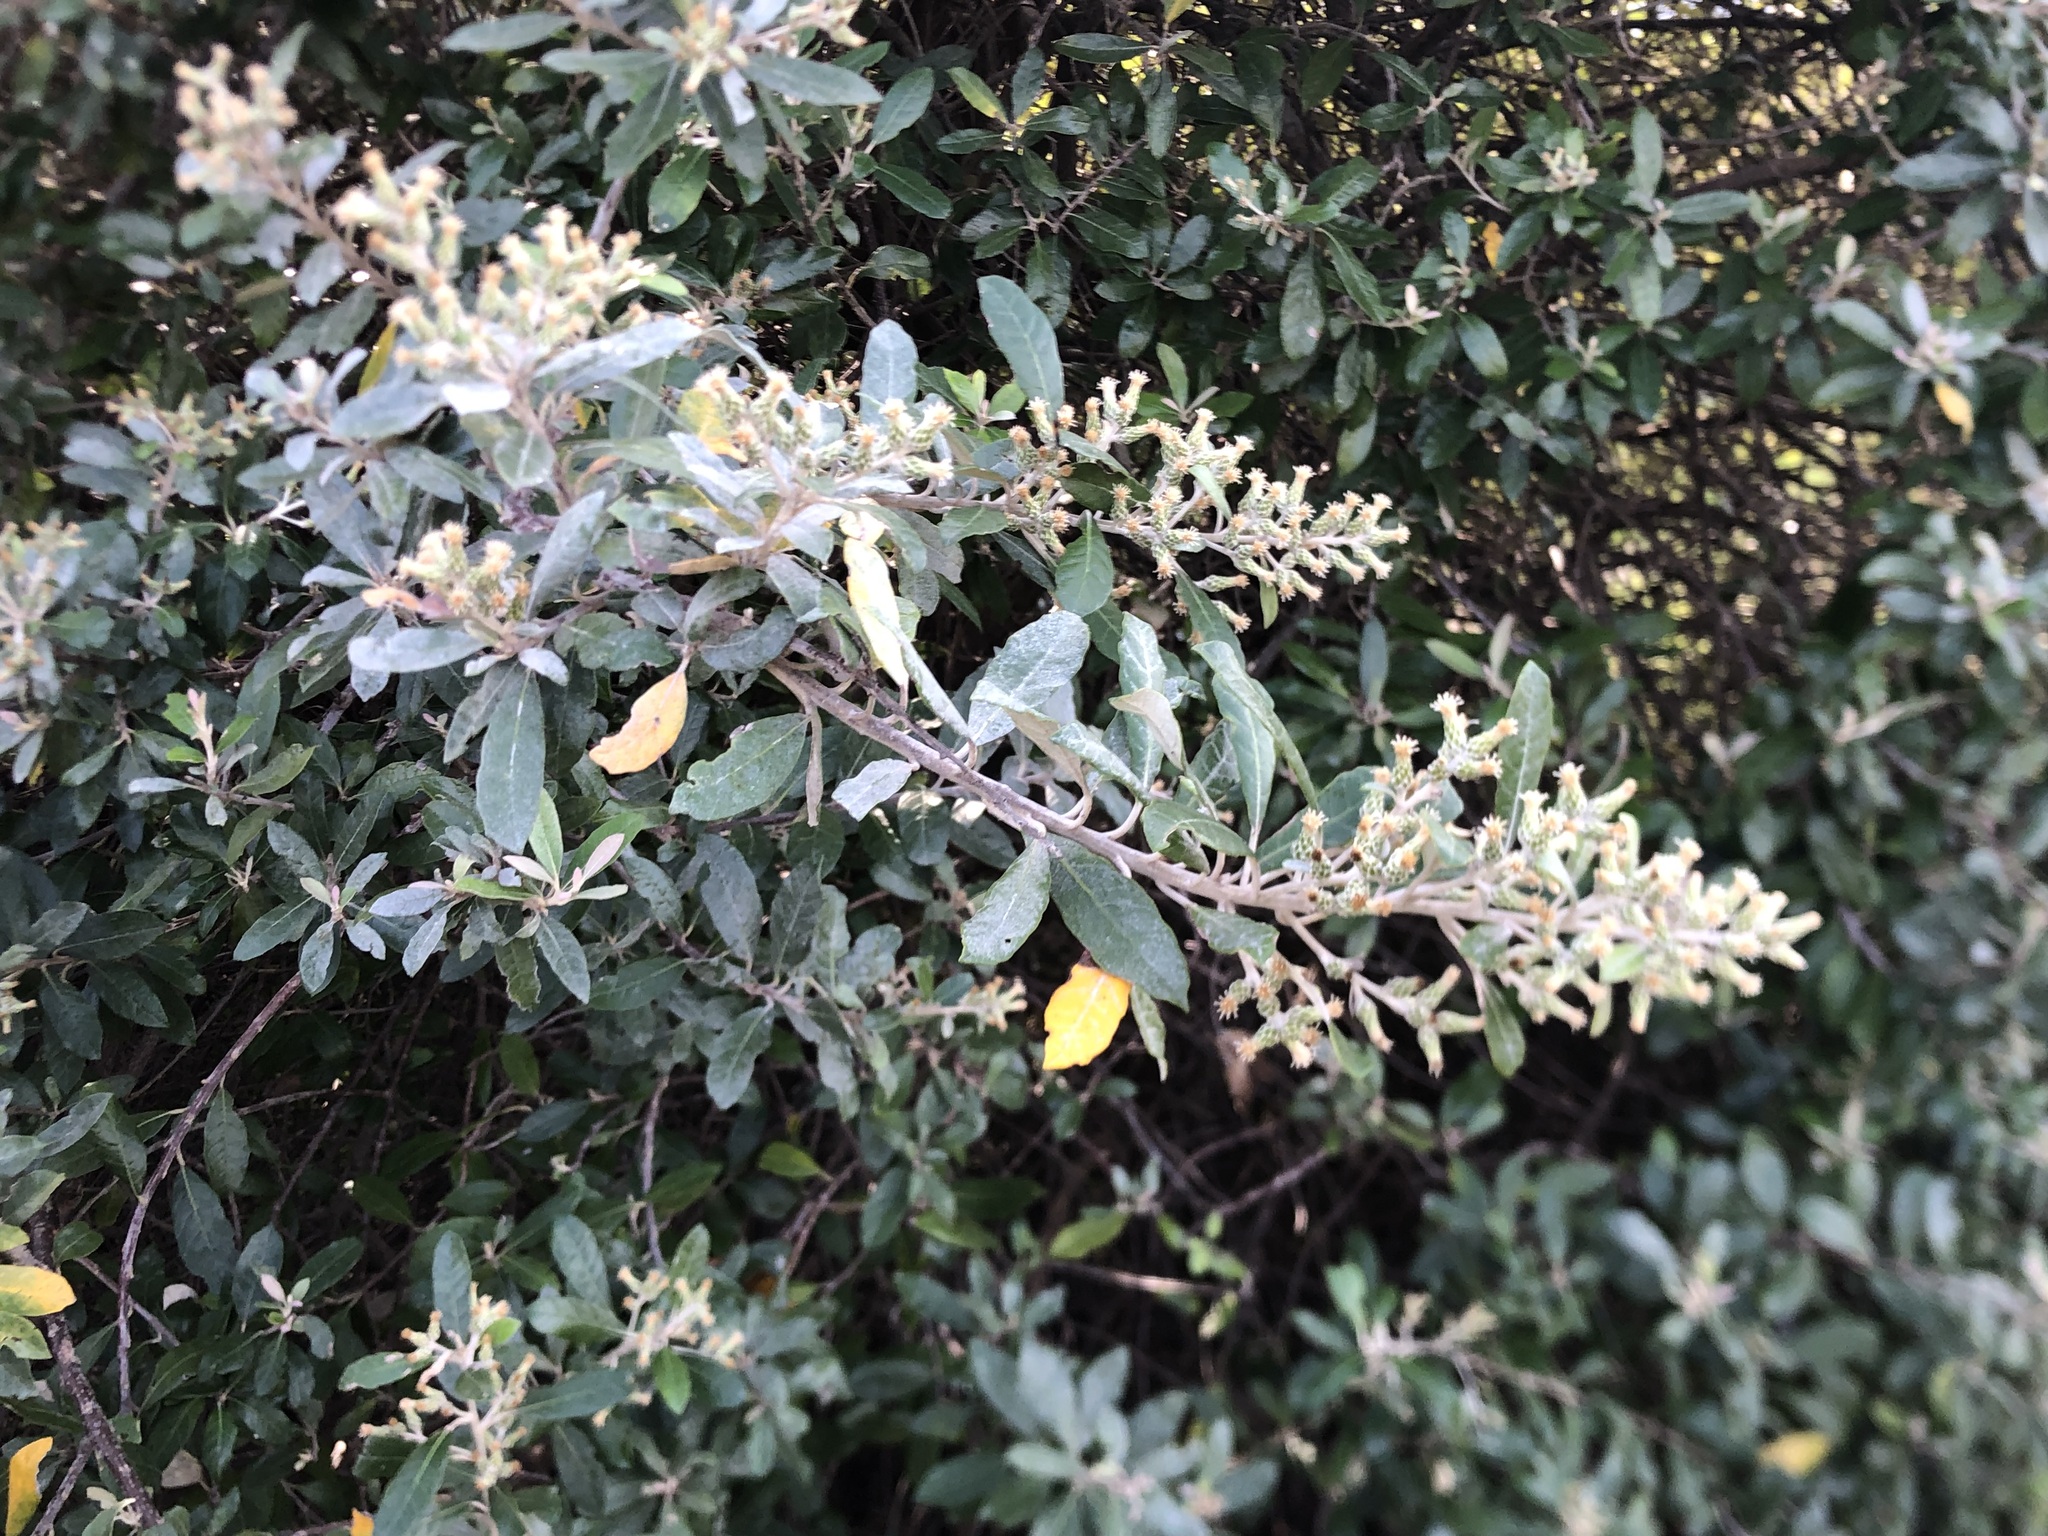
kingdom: Plantae
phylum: Tracheophyta
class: Magnoliopsida
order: Asterales
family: Asteraceae
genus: Brachylaena
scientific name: Brachylaena discolor
